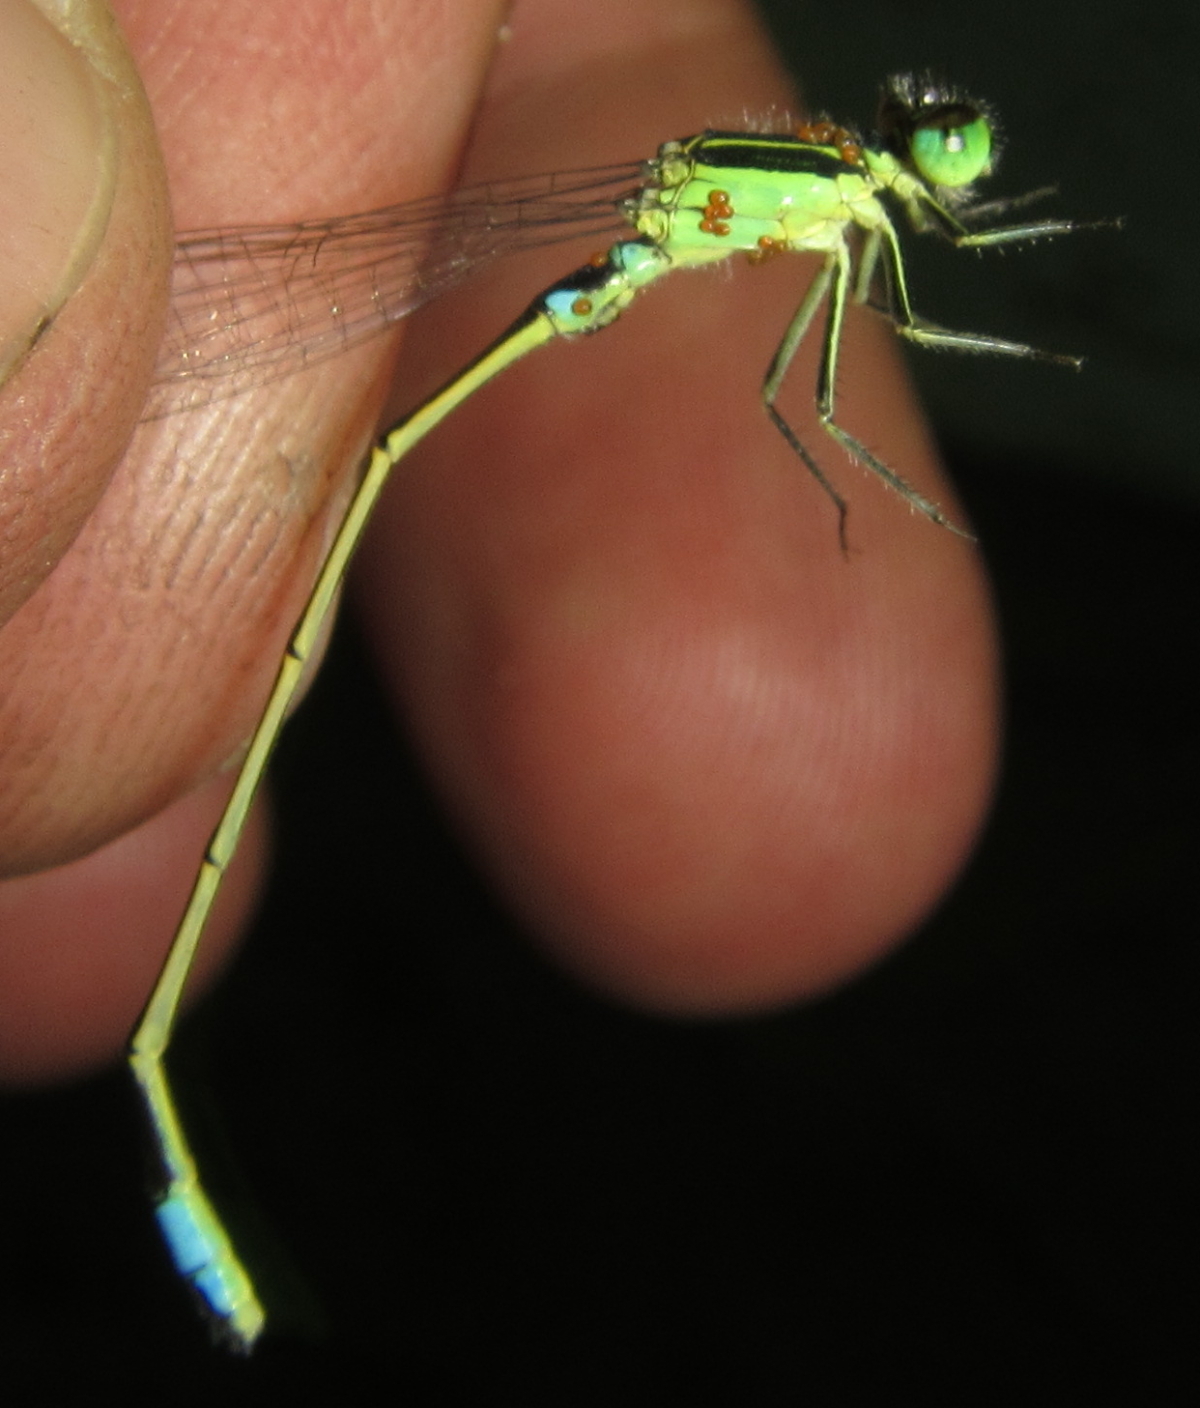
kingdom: Animalia
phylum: Arthropoda
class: Insecta
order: Odonata
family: Coenagrionidae
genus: Ischnura
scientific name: Ischnura senegalensis
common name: Tropical bluetail
